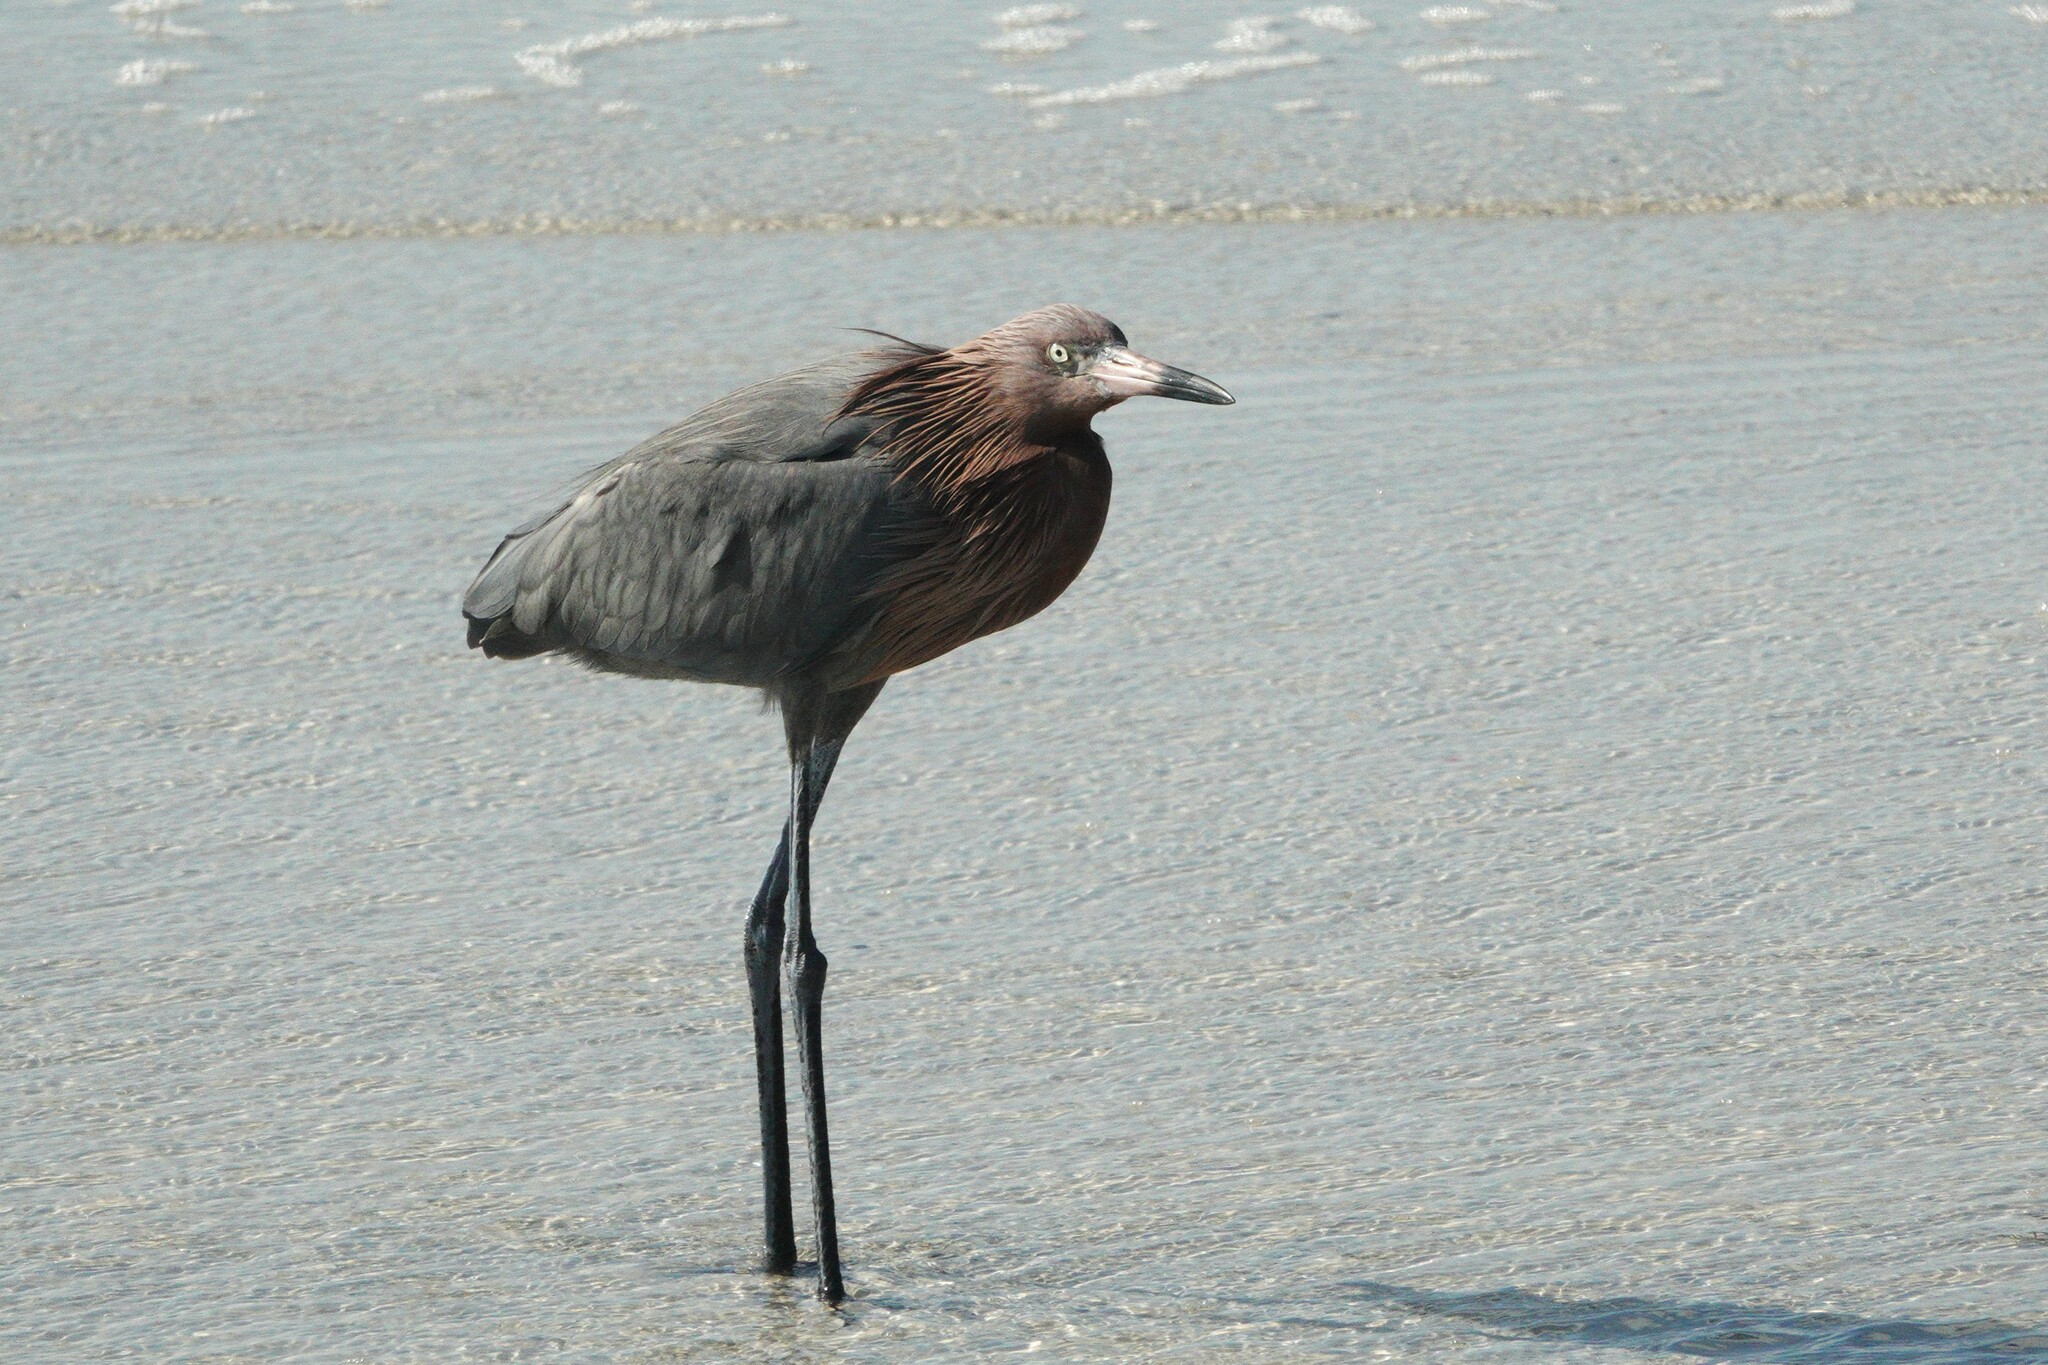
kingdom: Animalia
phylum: Chordata
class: Aves
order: Pelecaniformes
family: Ardeidae
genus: Egretta
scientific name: Egretta rufescens
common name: Reddish egret
